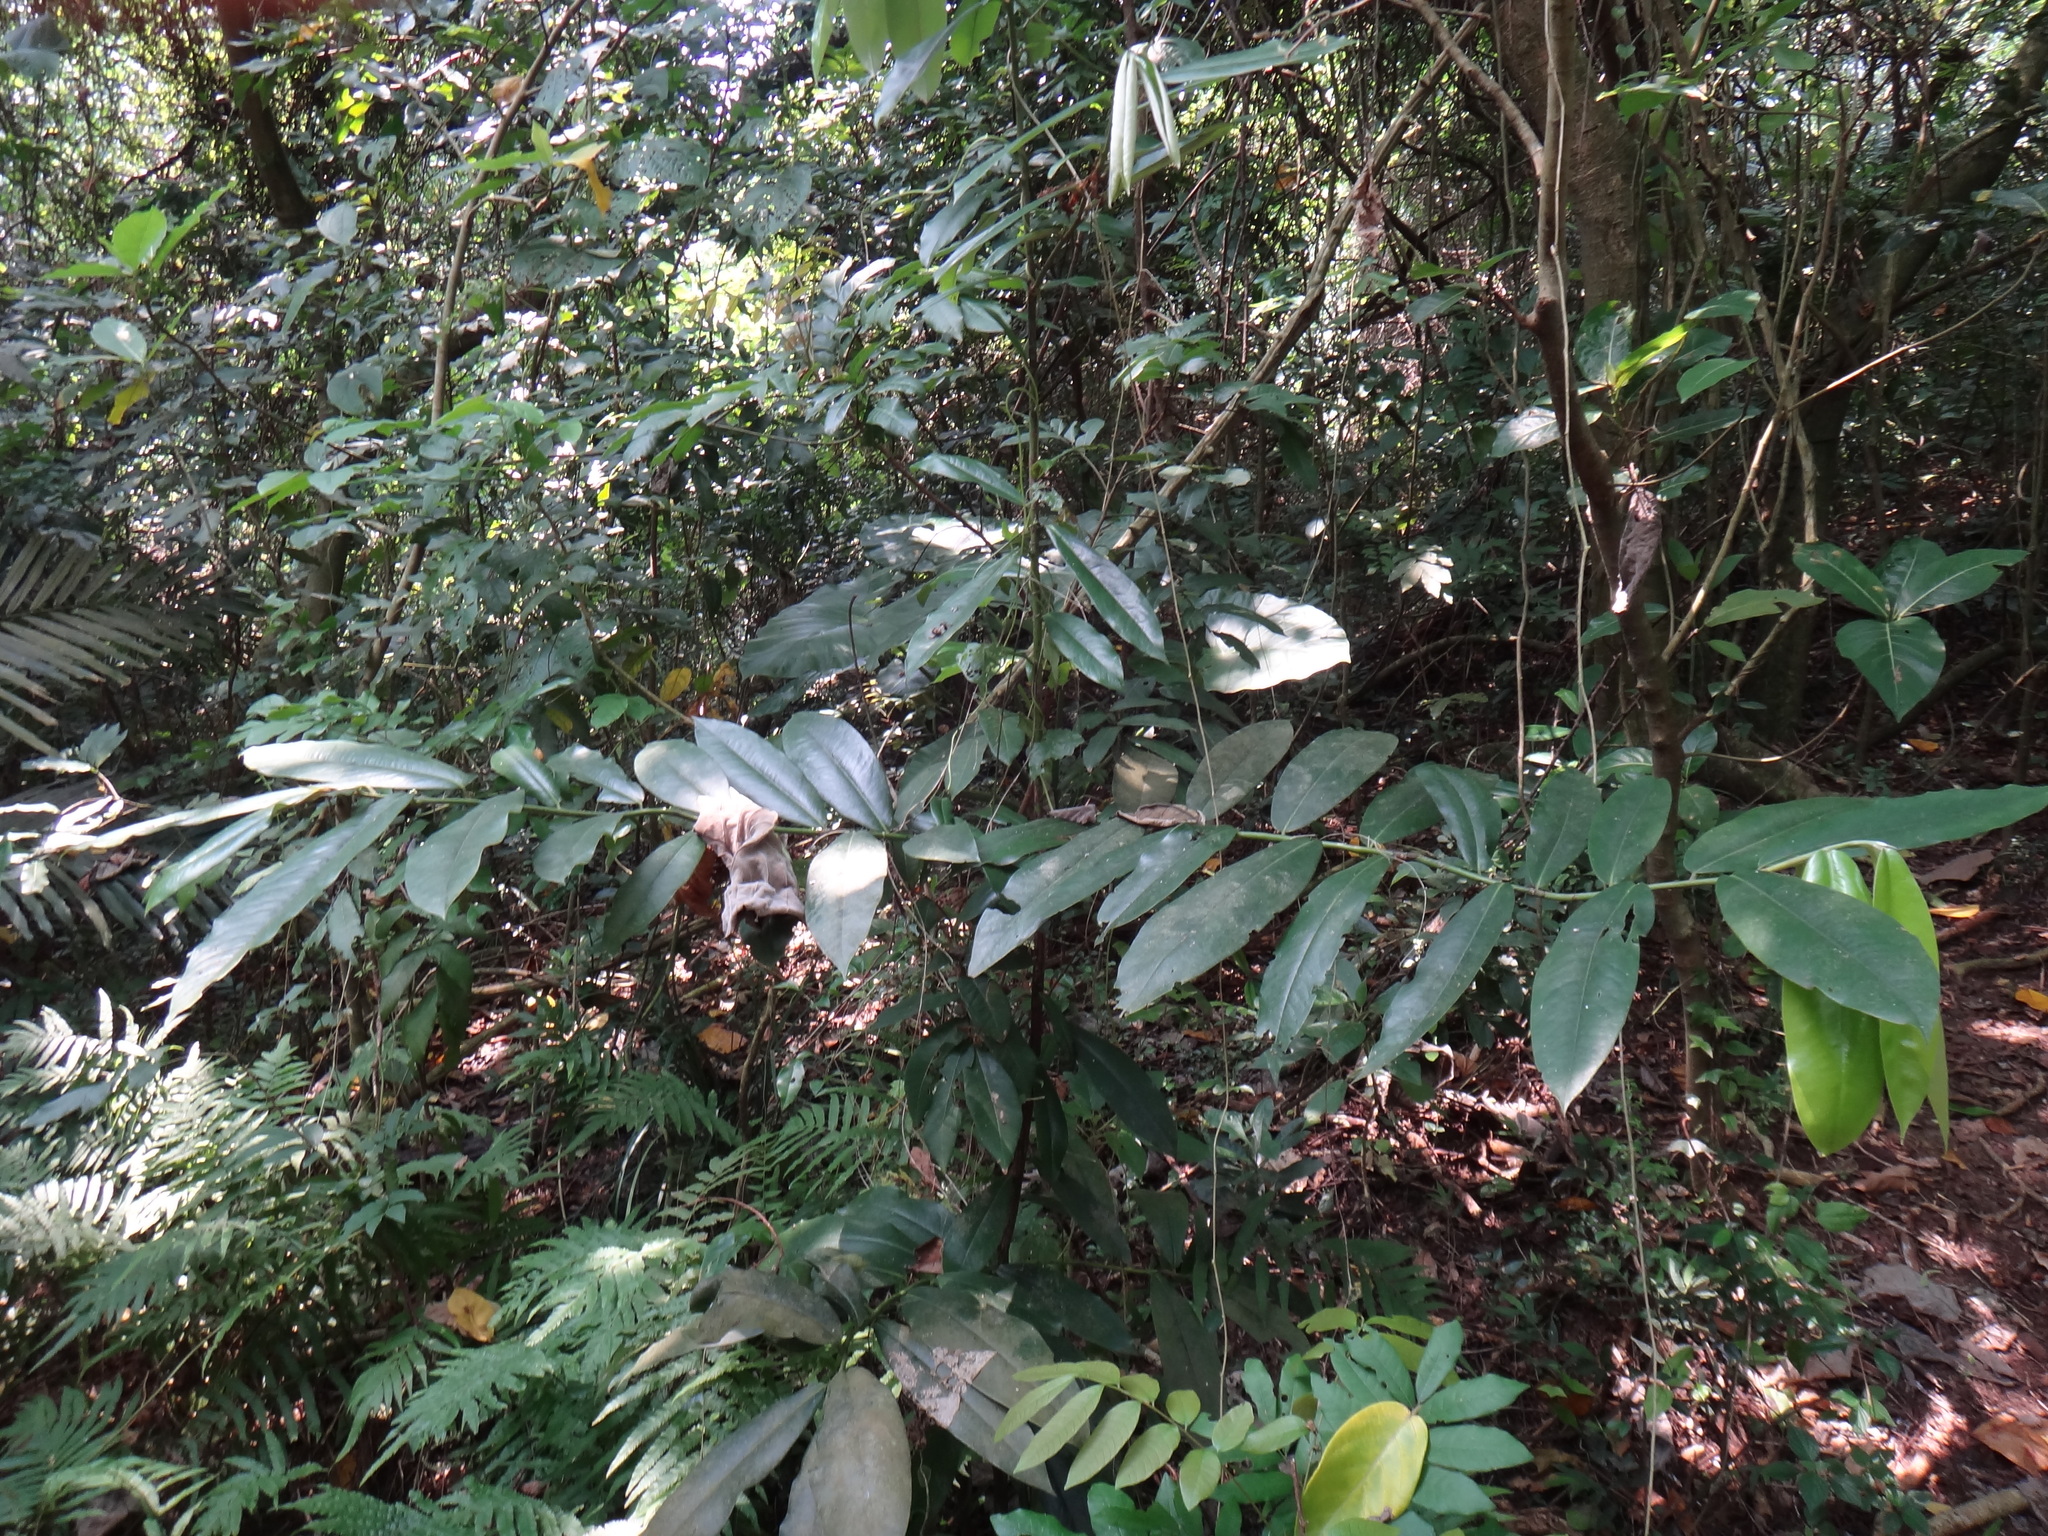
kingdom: Plantae
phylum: Tracheophyta
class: Magnoliopsida
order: Ericales
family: Ebenaceae
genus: Diospyros
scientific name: Diospyros blancoi
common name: Mabola-tree
